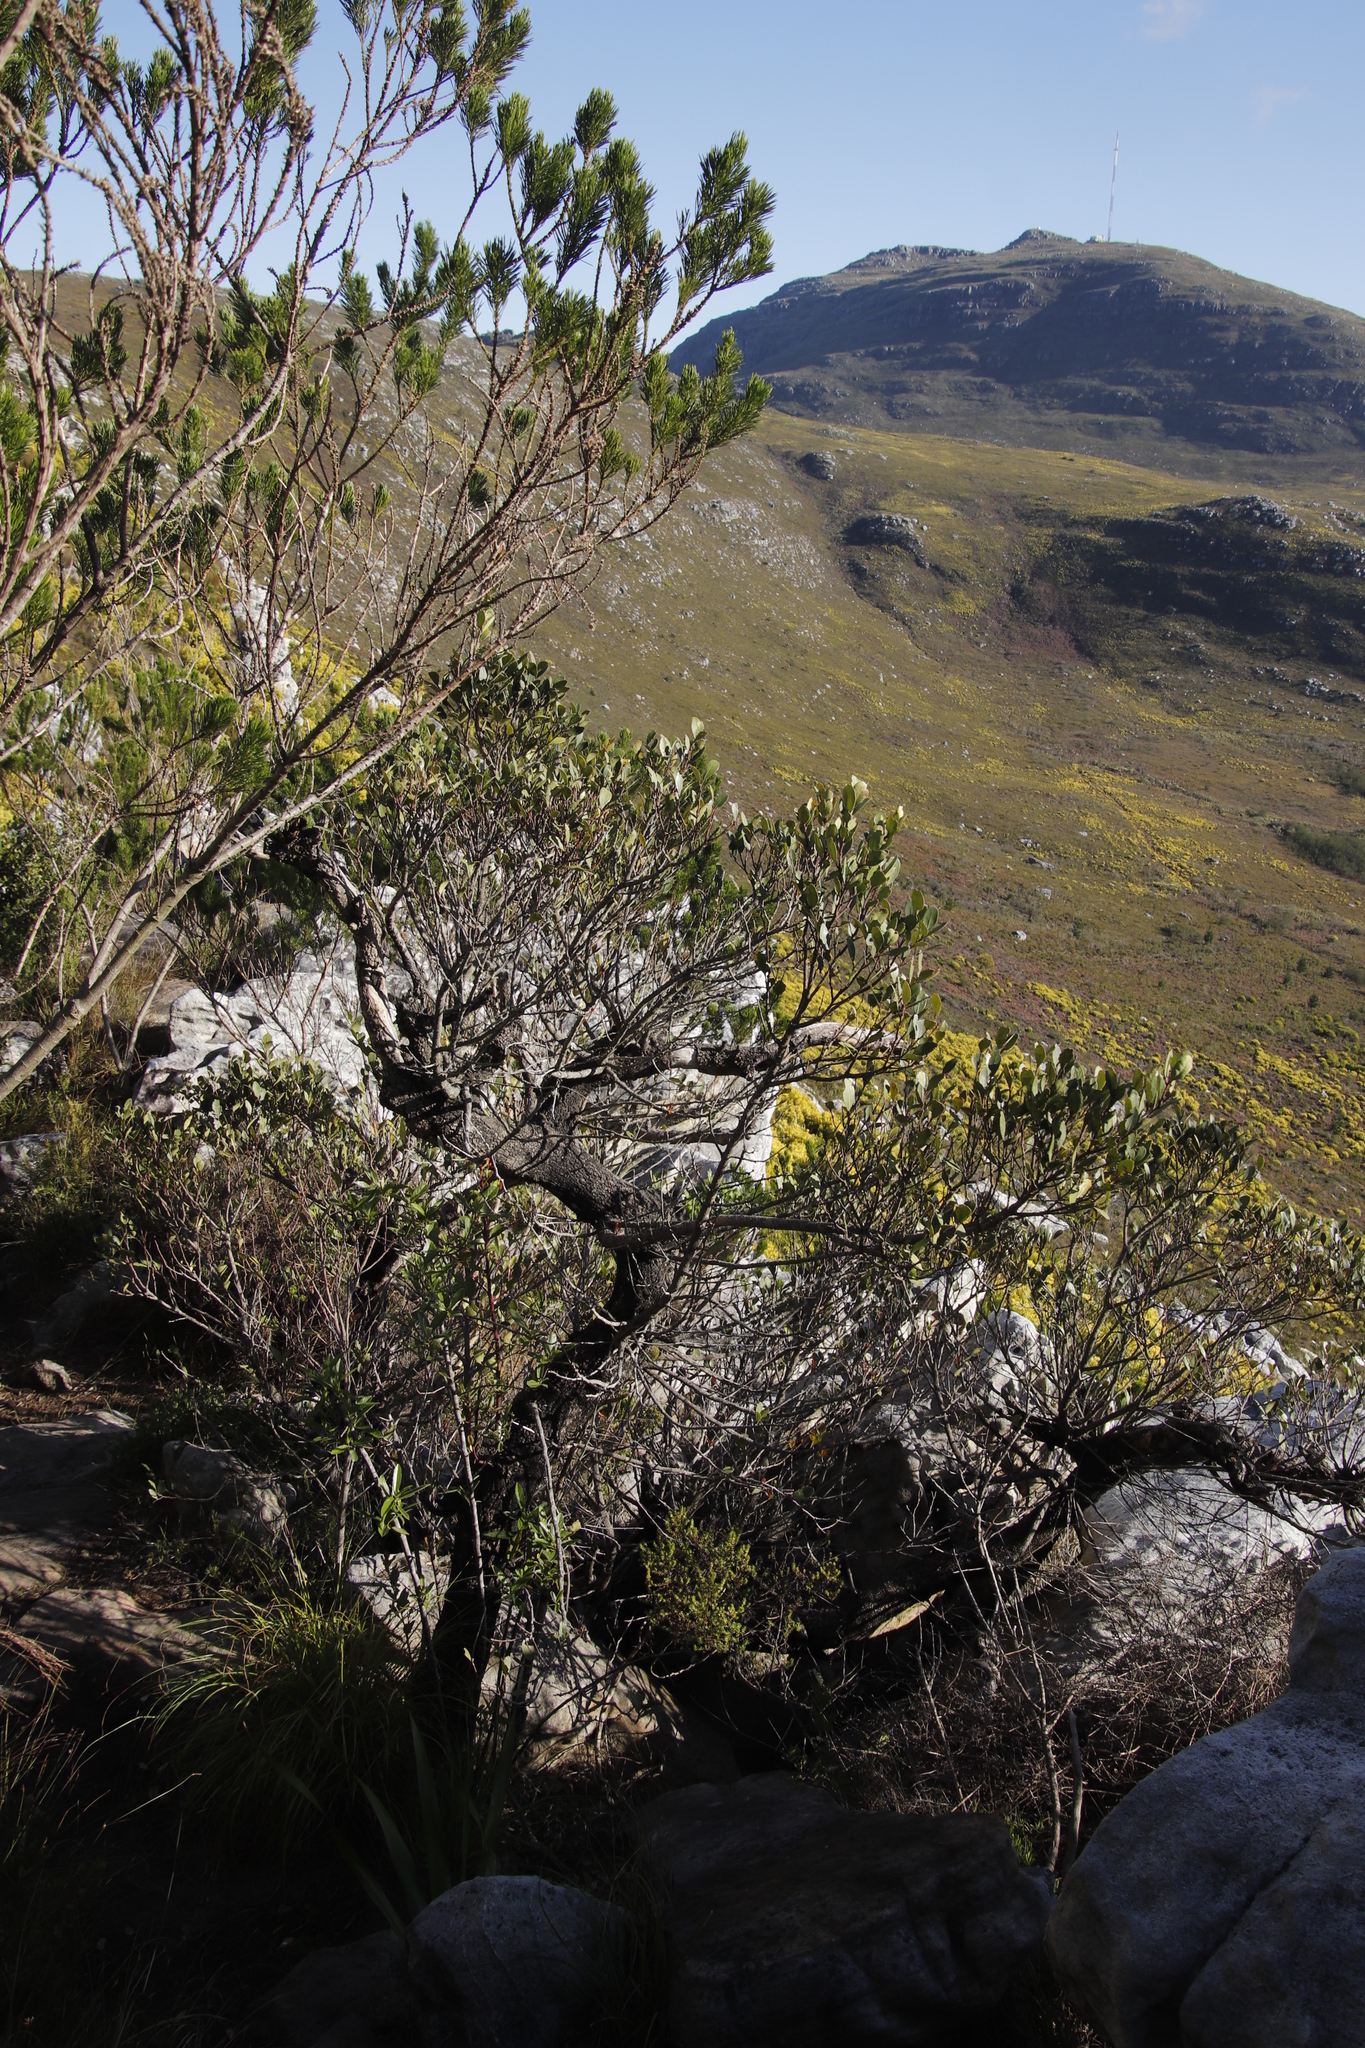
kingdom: Plantae
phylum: Tracheophyta
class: Magnoliopsida
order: Celastrales
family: Celastraceae
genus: Elaeodendron
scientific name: Elaeodendron schinoides
